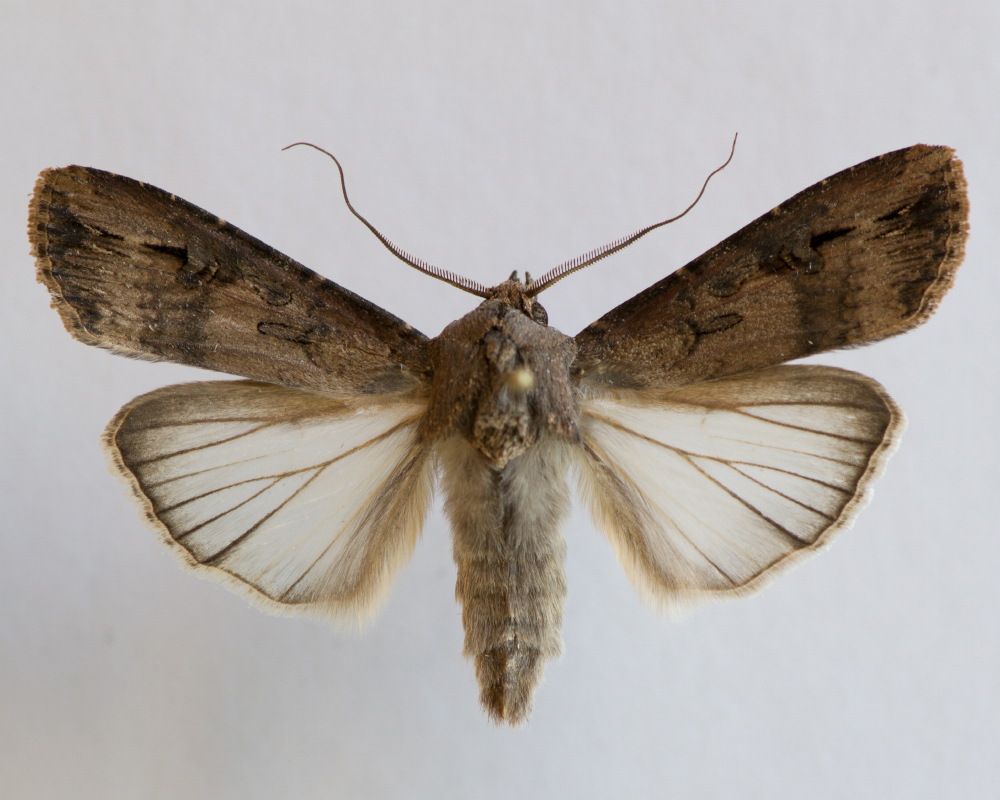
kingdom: Animalia
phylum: Arthropoda
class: Insecta
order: Lepidoptera
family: Noctuidae
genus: Agrotis
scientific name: Agrotis ipsilon
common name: Dark sword-grass
